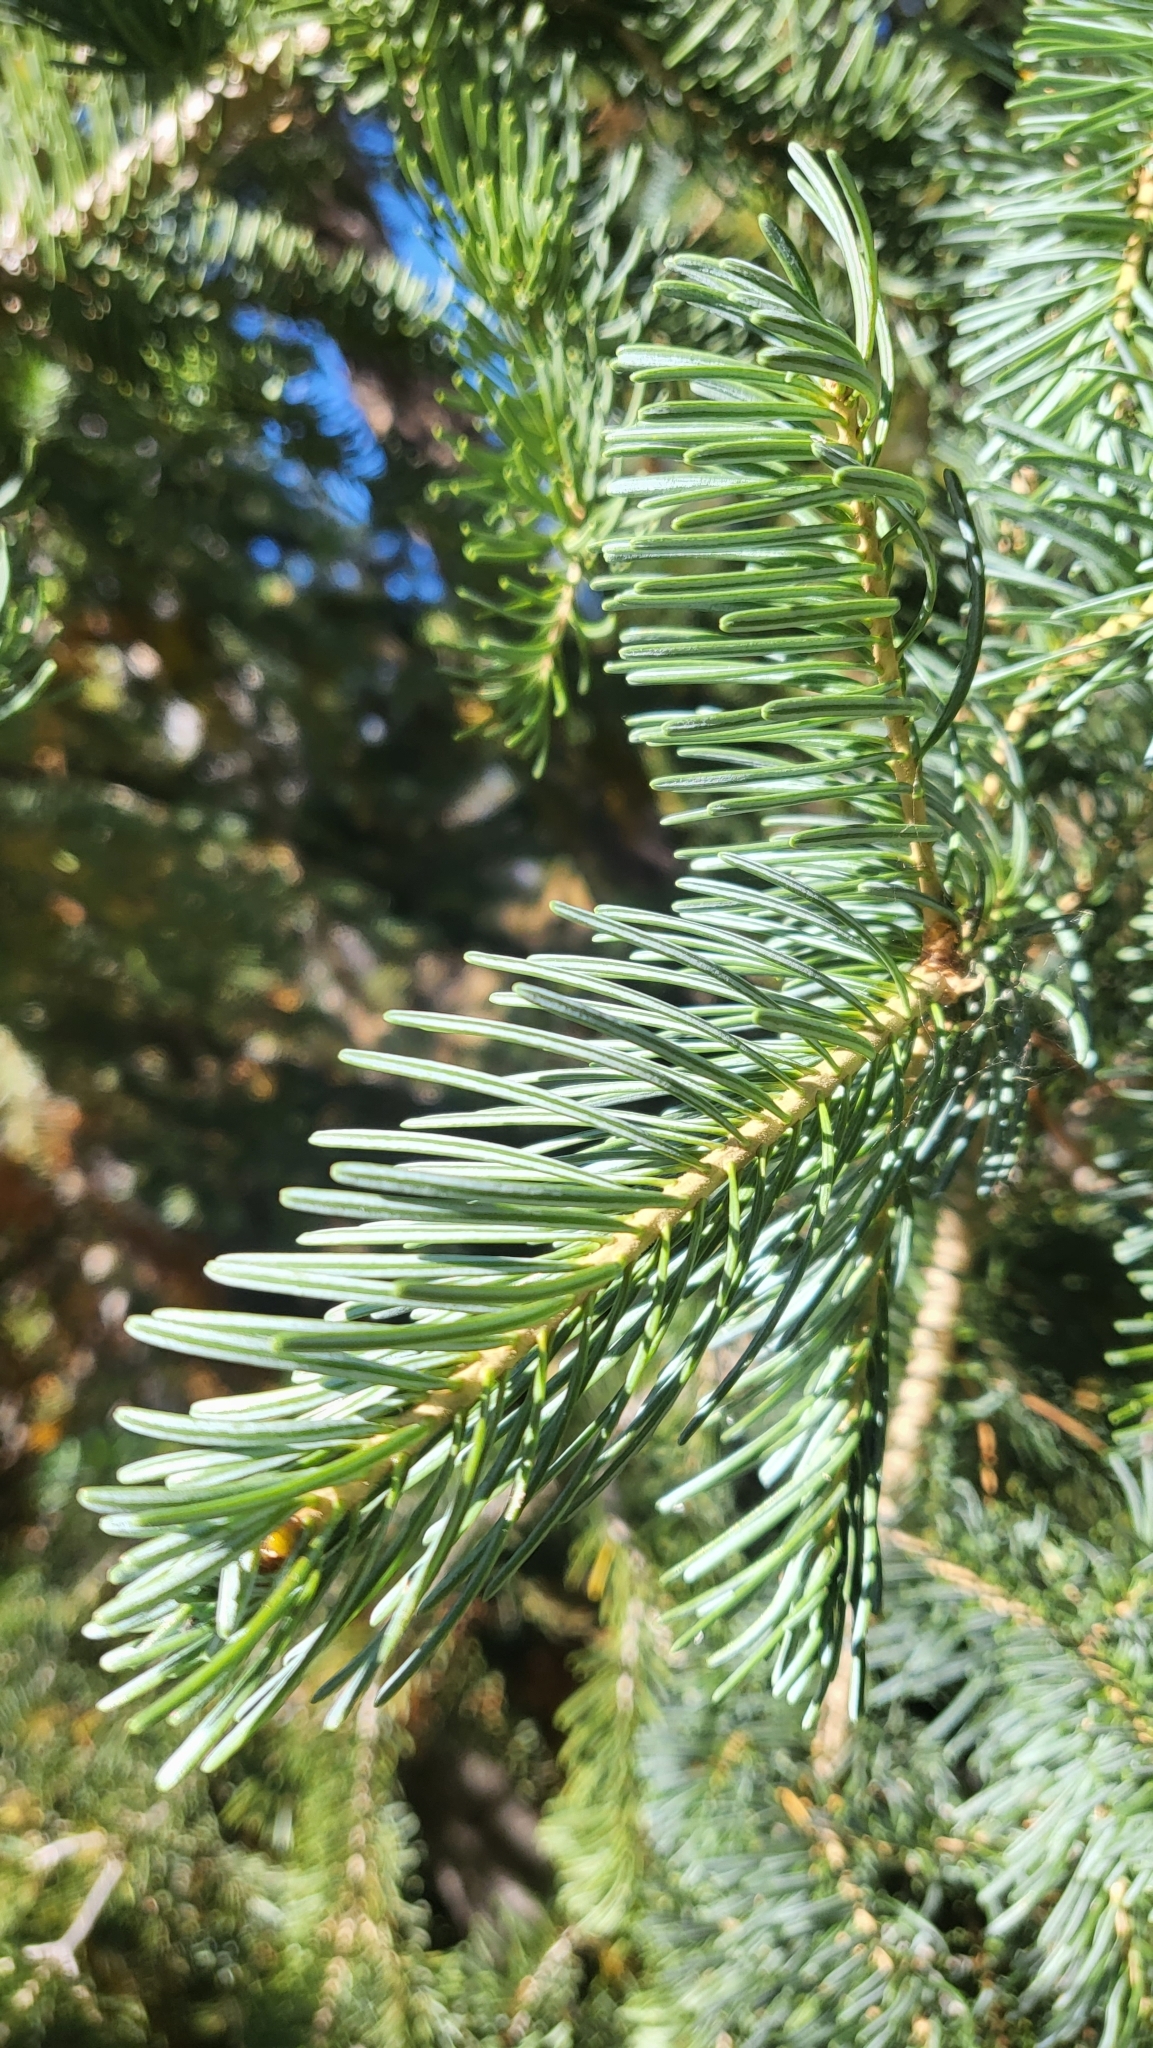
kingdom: Plantae
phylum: Tracheophyta
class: Pinopsida
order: Pinales
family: Pinaceae
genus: Abies
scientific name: Abies lasiocarpa
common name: Subalpine fir
